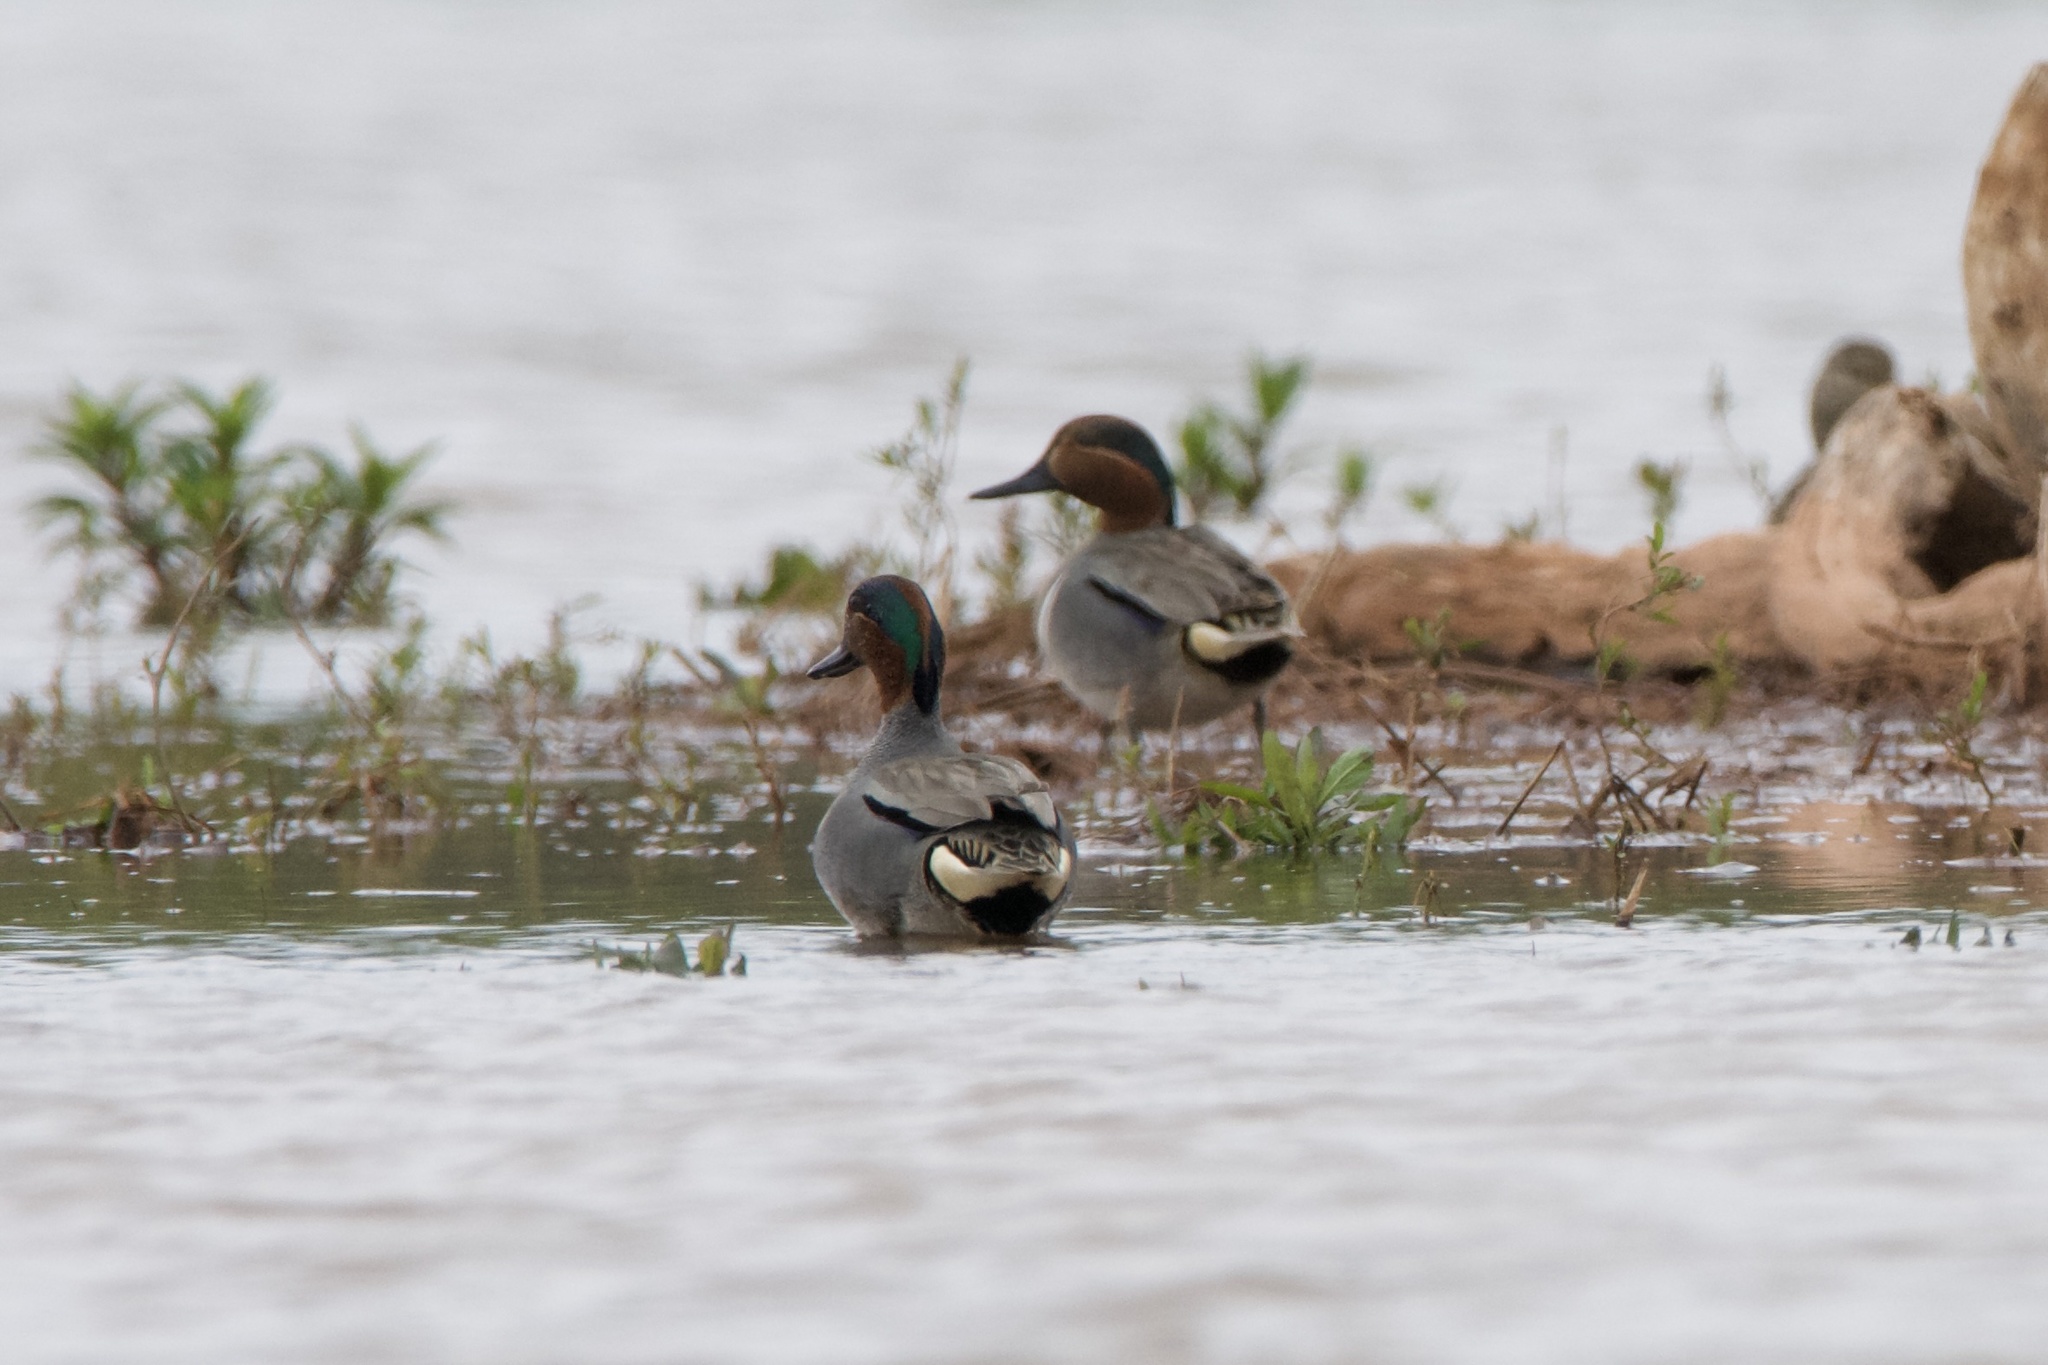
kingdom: Animalia
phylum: Chordata
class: Aves
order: Anseriformes
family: Anatidae
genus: Anas
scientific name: Anas crecca
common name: Eurasian teal
